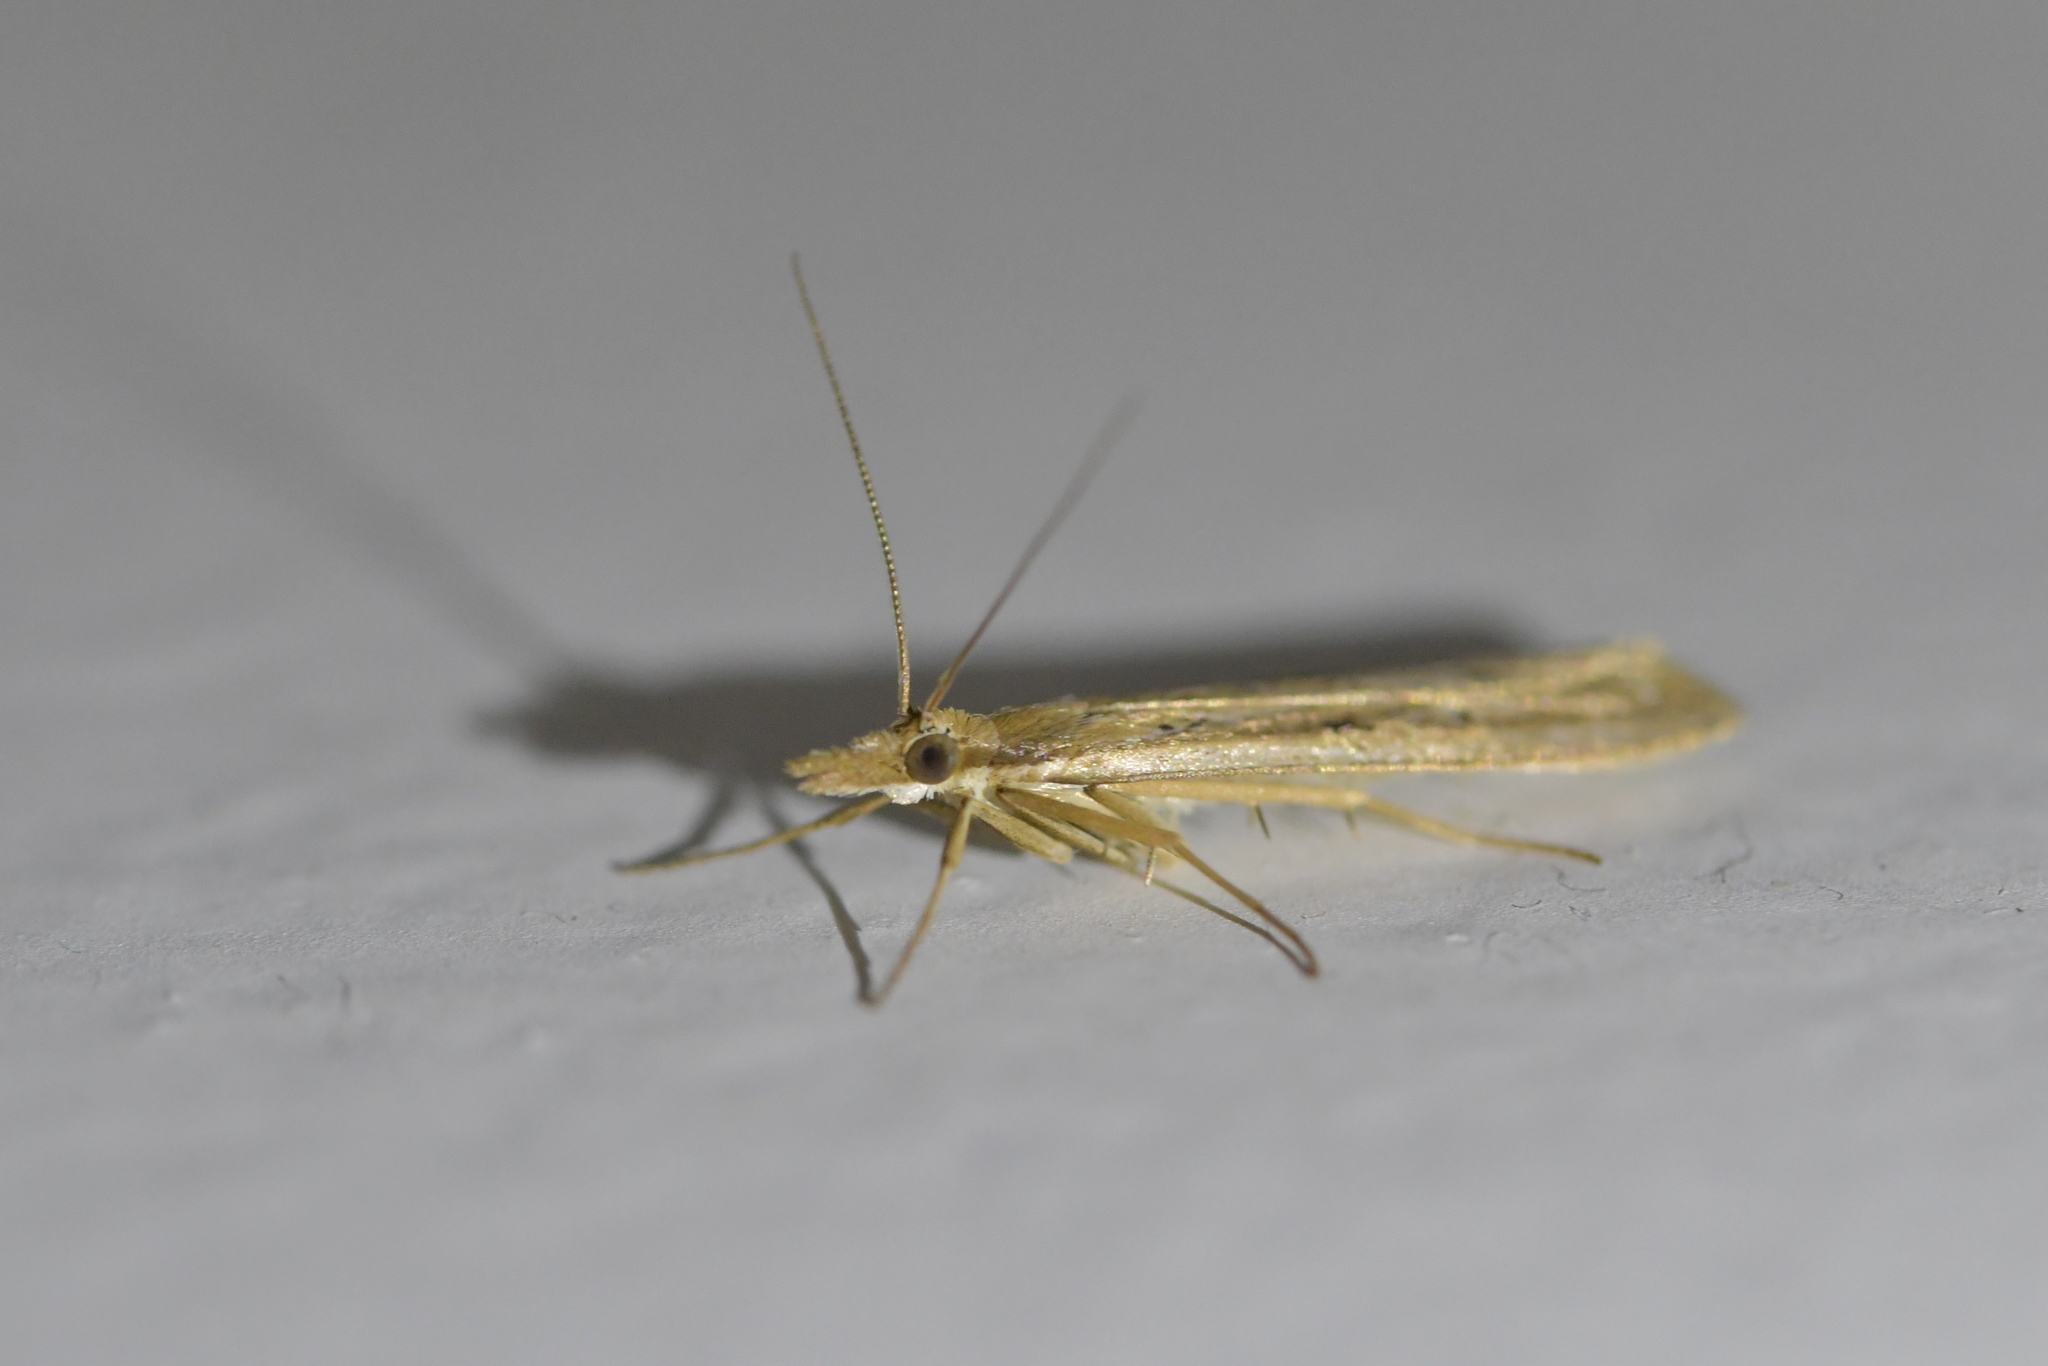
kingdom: Animalia
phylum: Arthropoda
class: Insecta
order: Lepidoptera
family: Crambidae
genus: Eudonia
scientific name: Eudonia sabulosella
